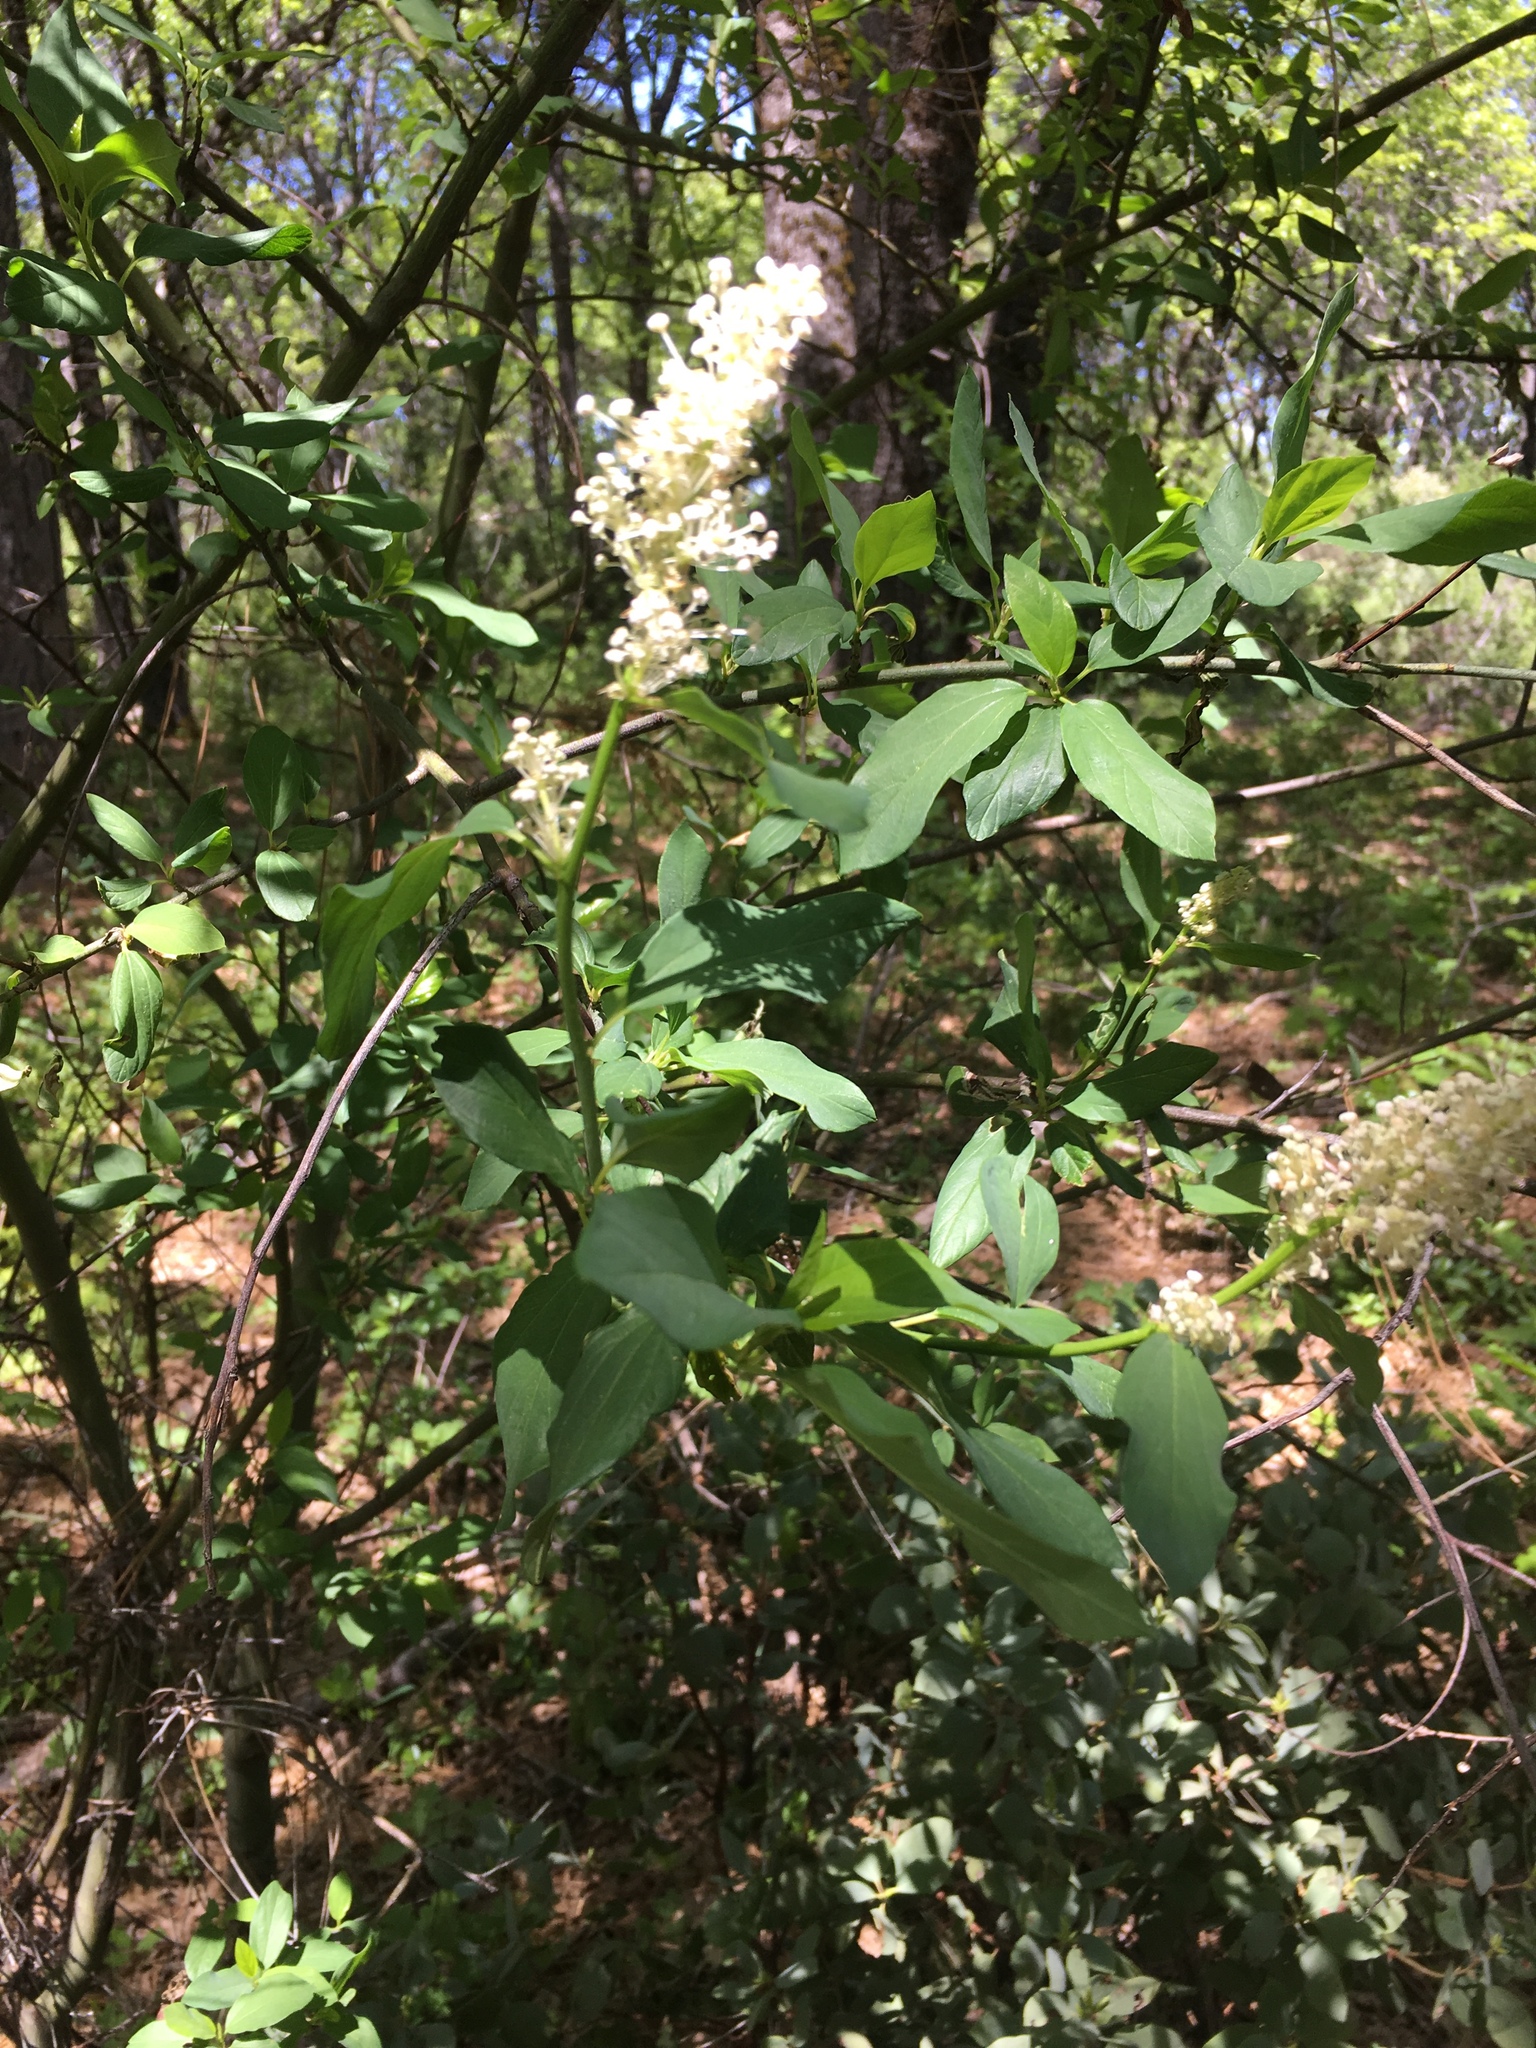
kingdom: Plantae
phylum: Tracheophyta
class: Magnoliopsida
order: Rosales
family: Rhamnaceae
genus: Ceanothus
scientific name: Ceanothus integerrimus
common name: Deerbrush ceanothus
